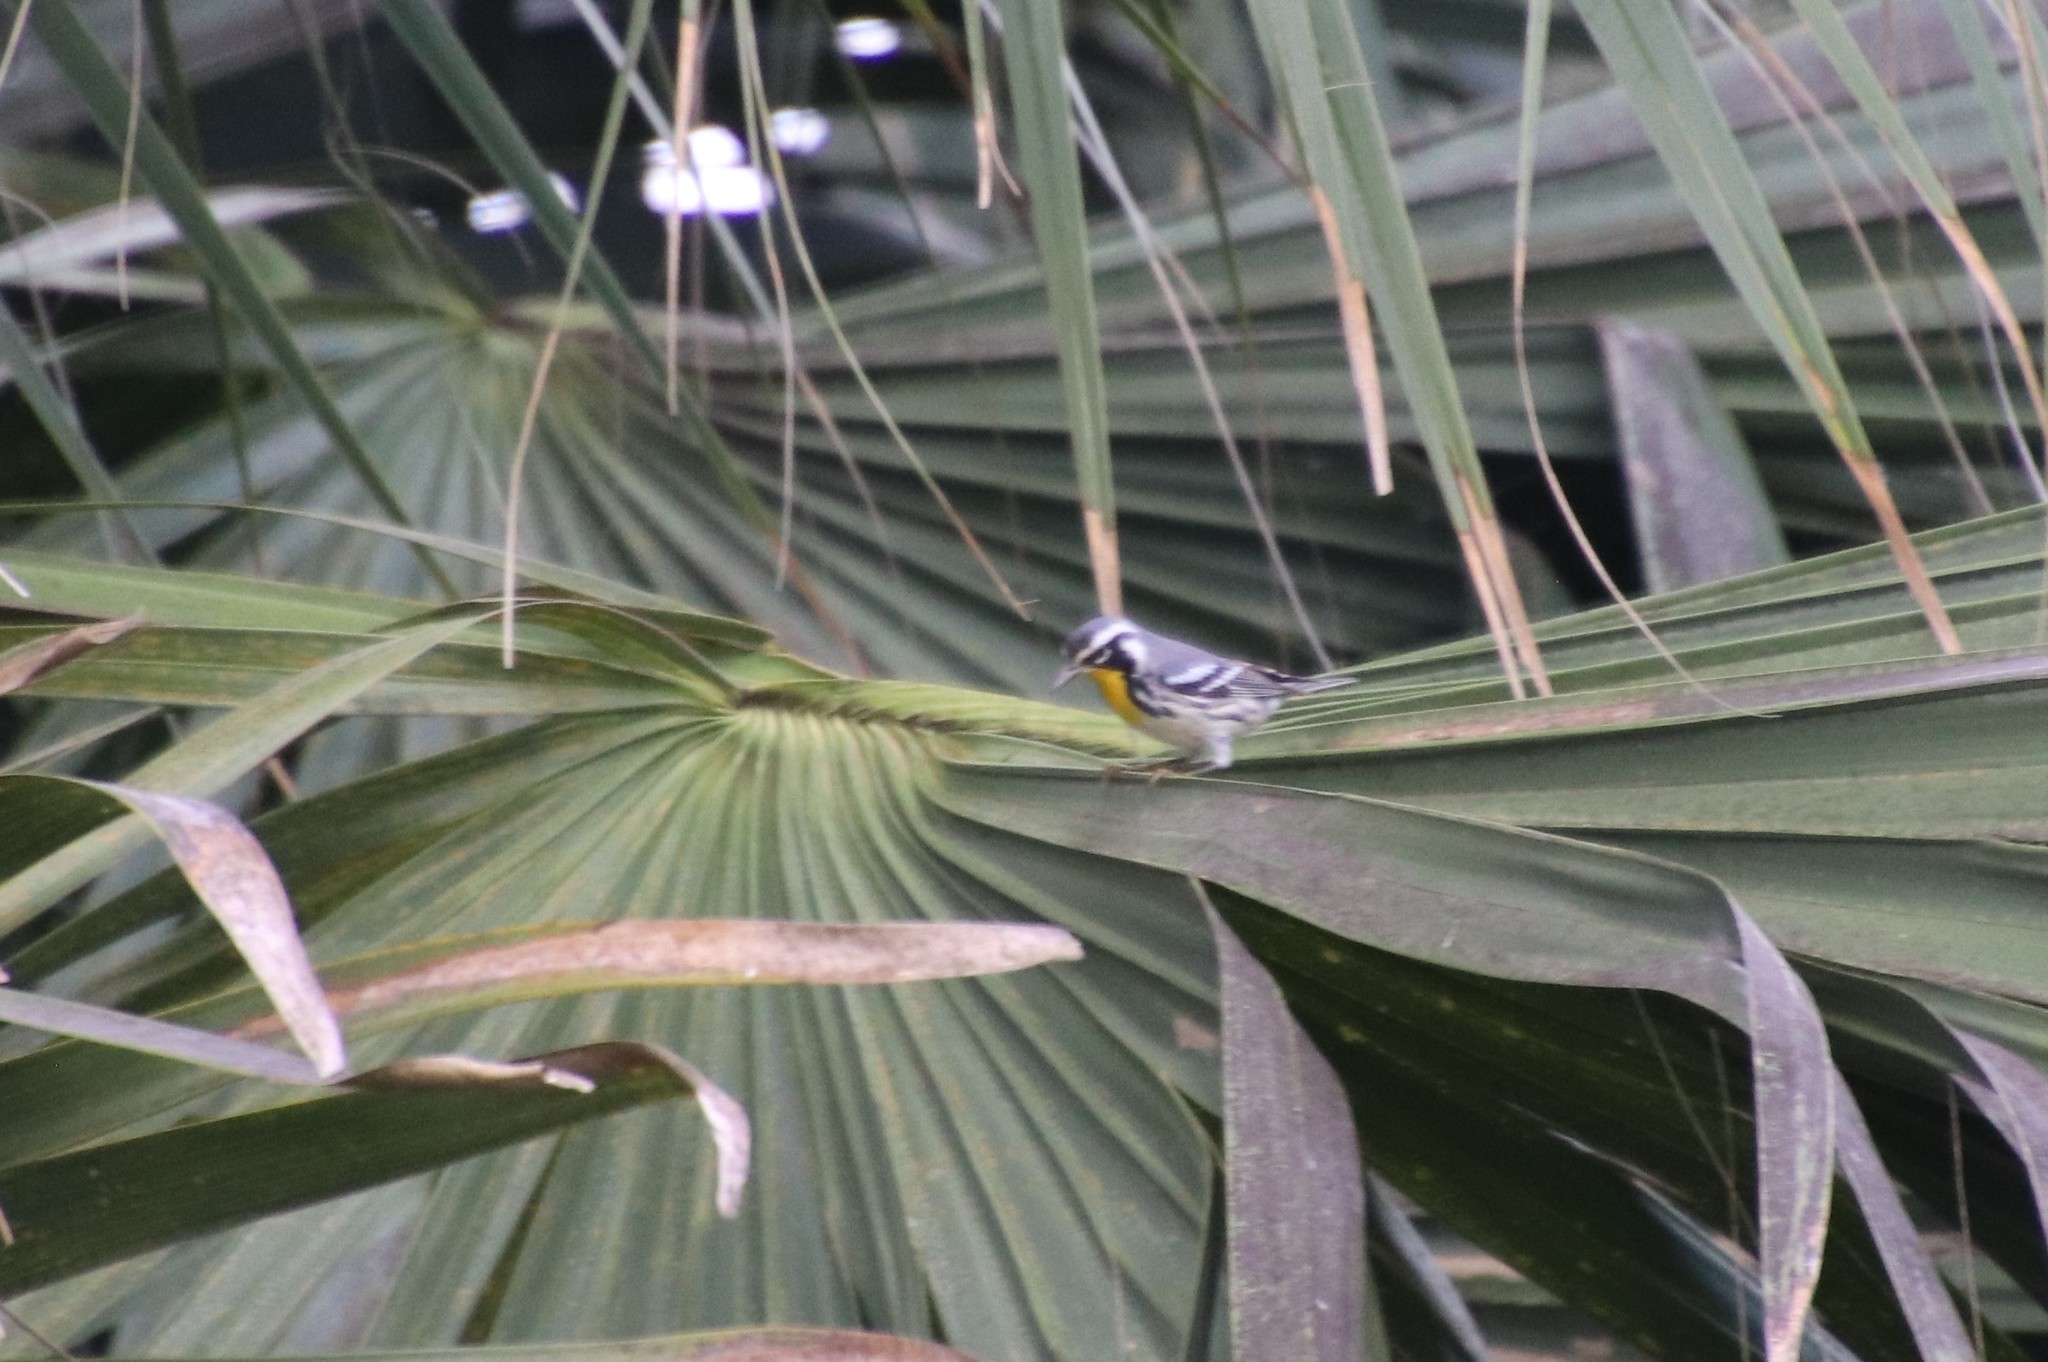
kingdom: Animalia
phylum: Chordata
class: Aves
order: Passeriformes
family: Parulidae
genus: Setophaga
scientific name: Setophaga dominica
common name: Yellow-throated warbler
